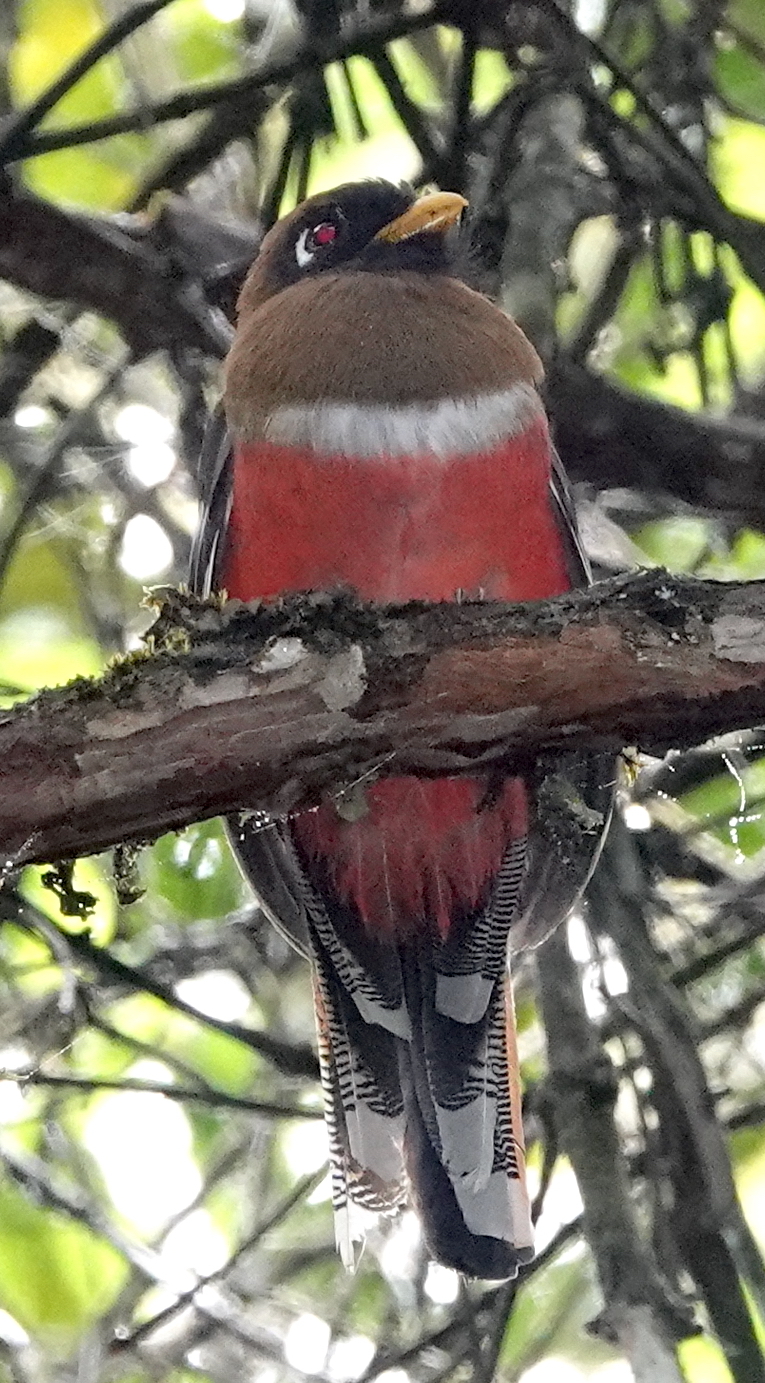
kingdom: Animalia
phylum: Chordata
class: Aves
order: Trogoniformes
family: Trogonidae
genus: Trogon
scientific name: Trogon personatus
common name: Masked trogon
